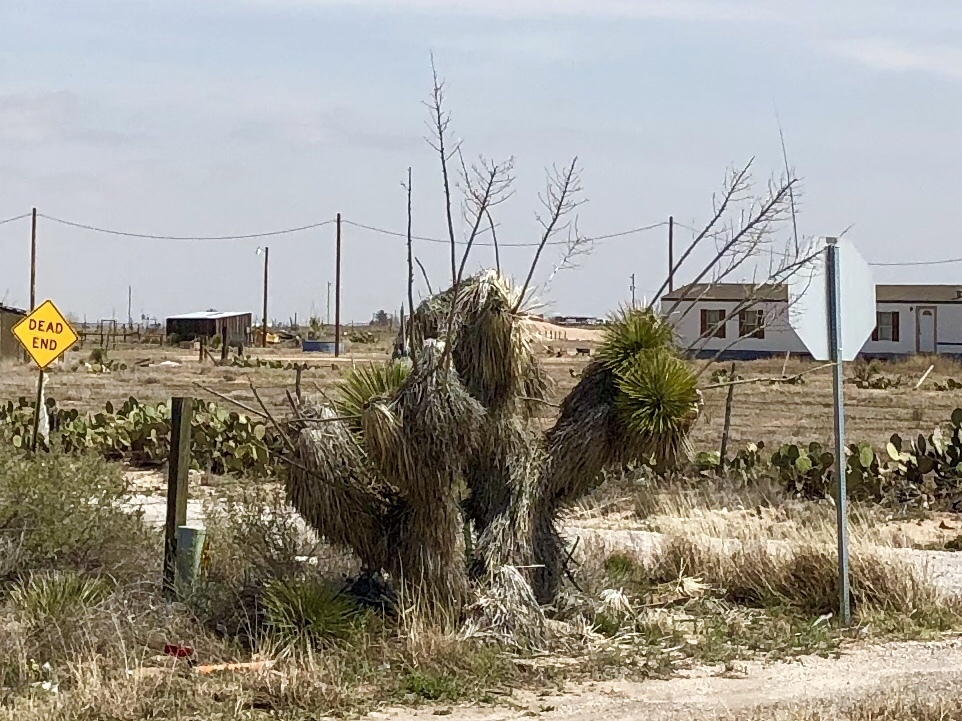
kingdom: Plantae
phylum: Tracheophyta
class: Liliopsida
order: Asparagales
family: Asparagaceae
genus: Yucca
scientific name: Yucca elata
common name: Palmella
